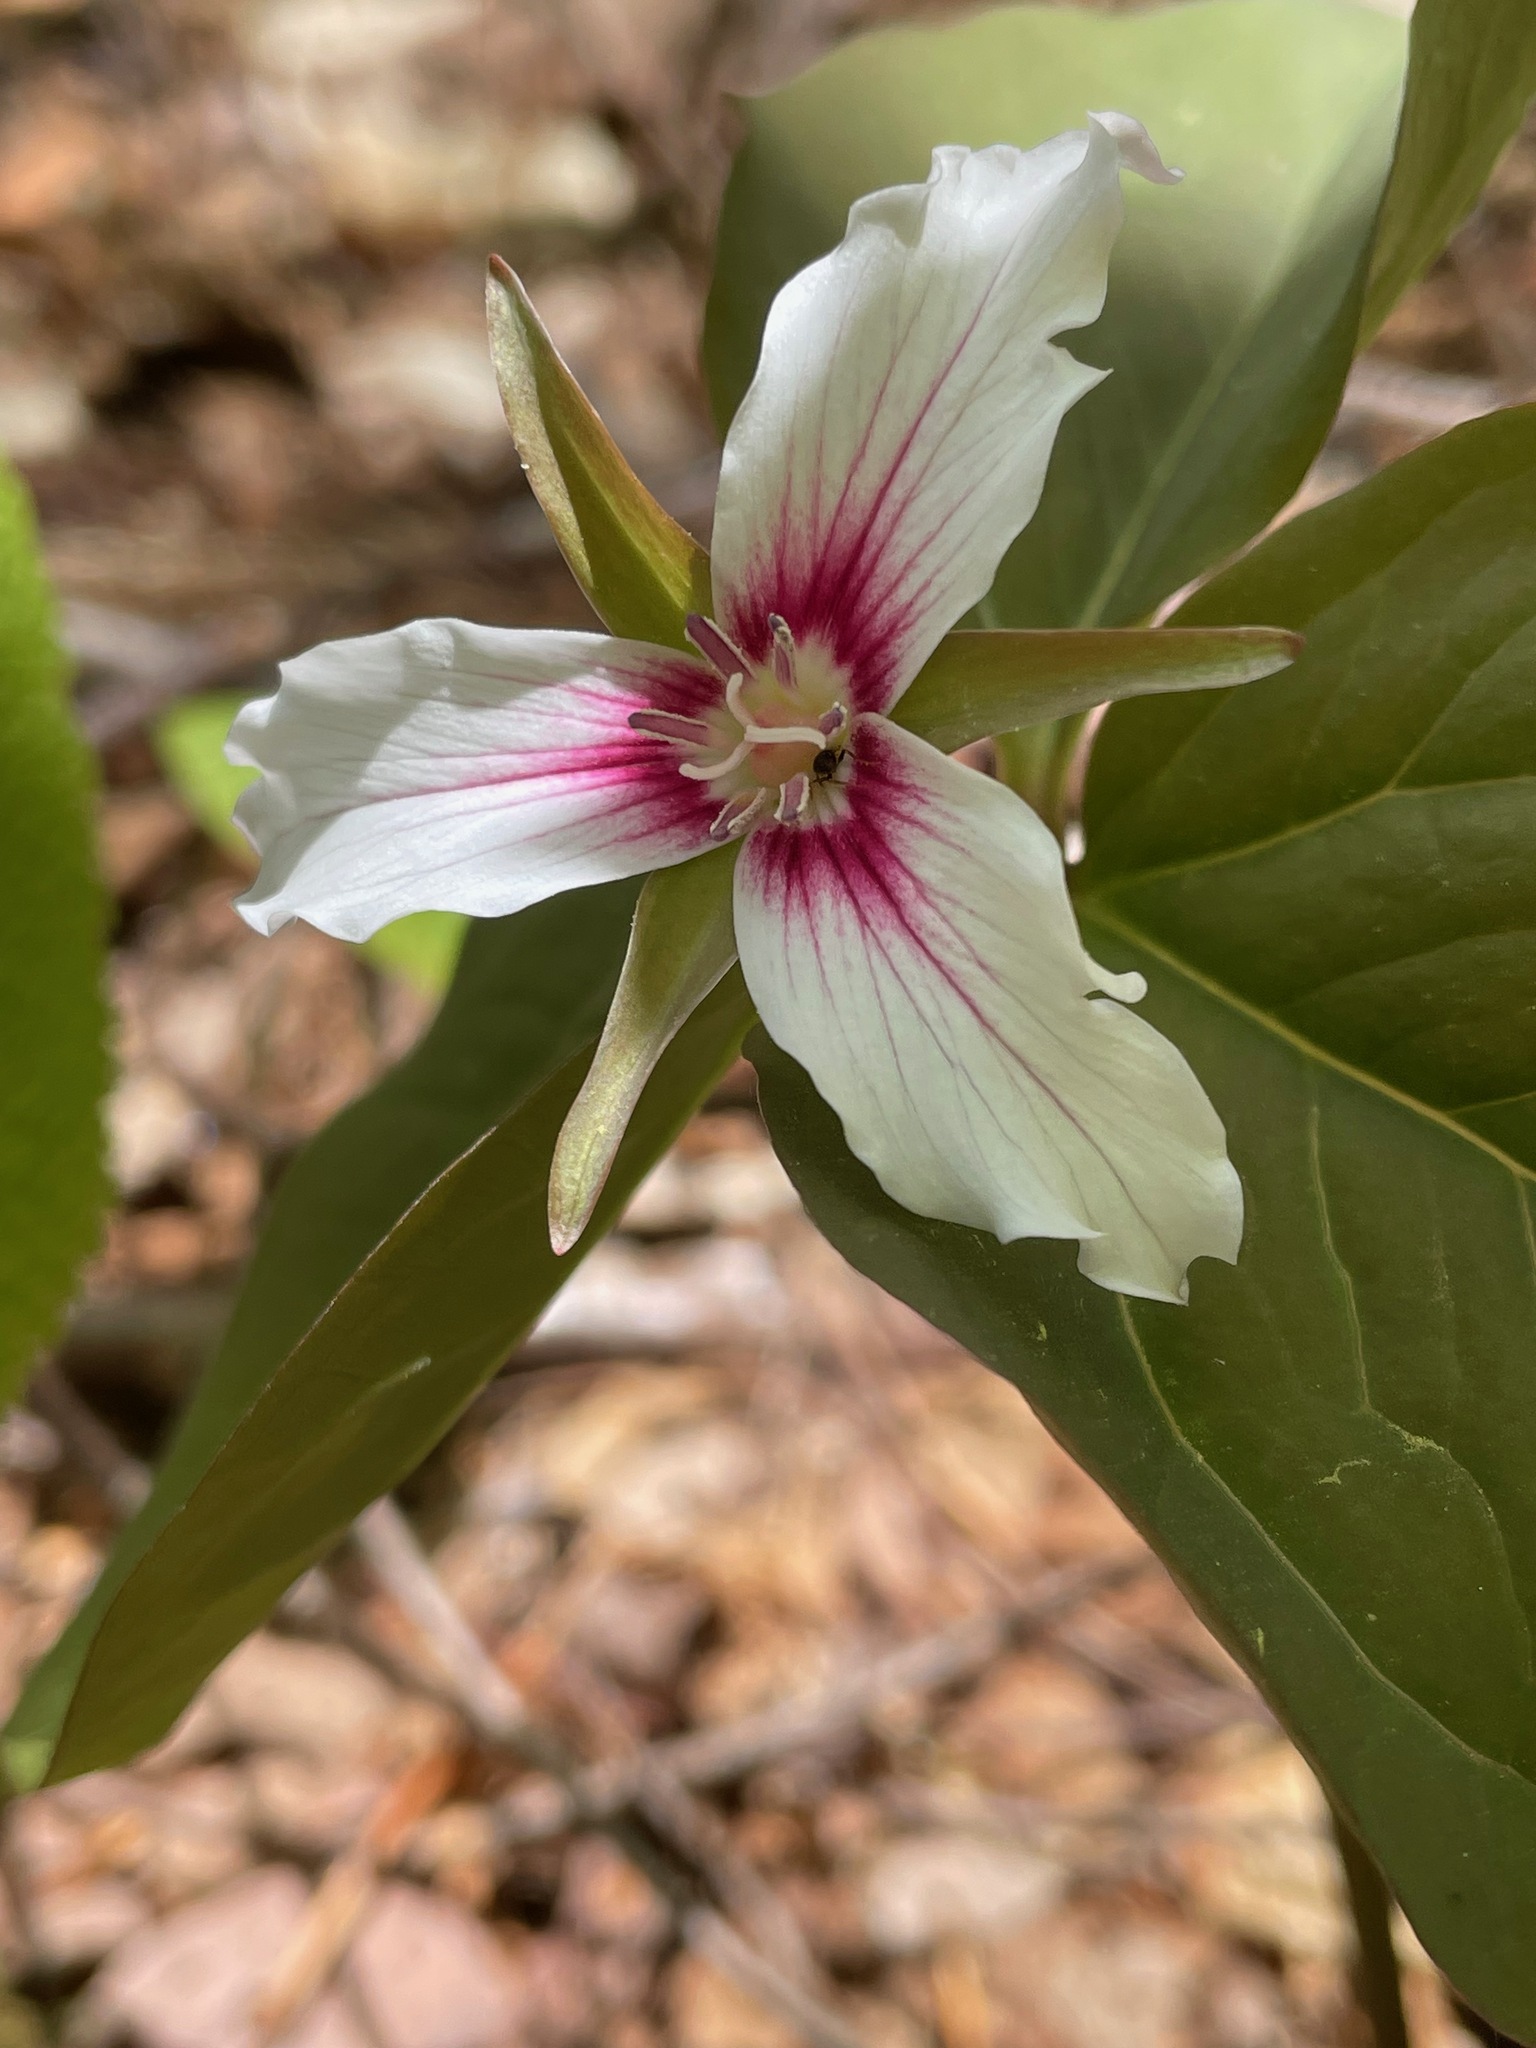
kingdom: Plantae
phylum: Tracheophyta
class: Liliopsida
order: Liliales
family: Melanthiaceae
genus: Trillium
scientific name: Trillium undulatum
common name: Paint trillium
